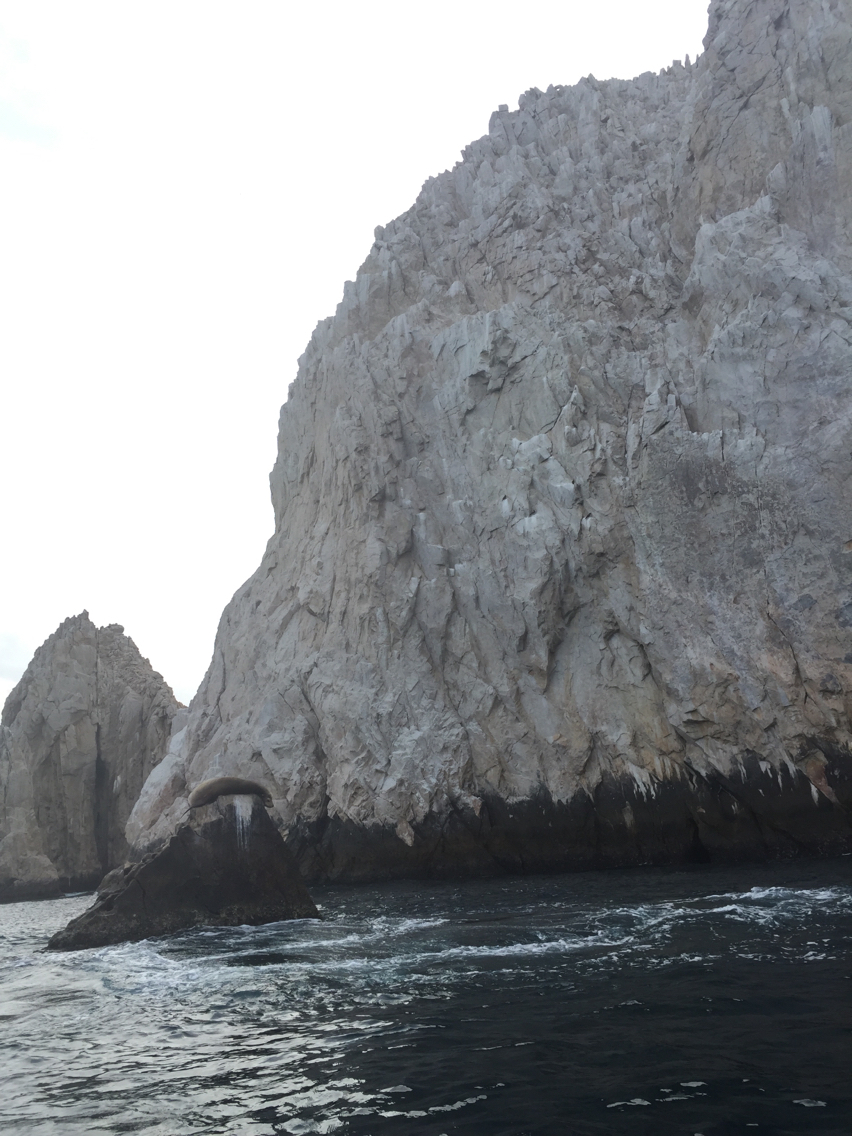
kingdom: Animalia
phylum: Chordata
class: Mammalia
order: Carnivora
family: Otariidae
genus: Zalophus
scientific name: Zalophus californianus
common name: California sea lion
